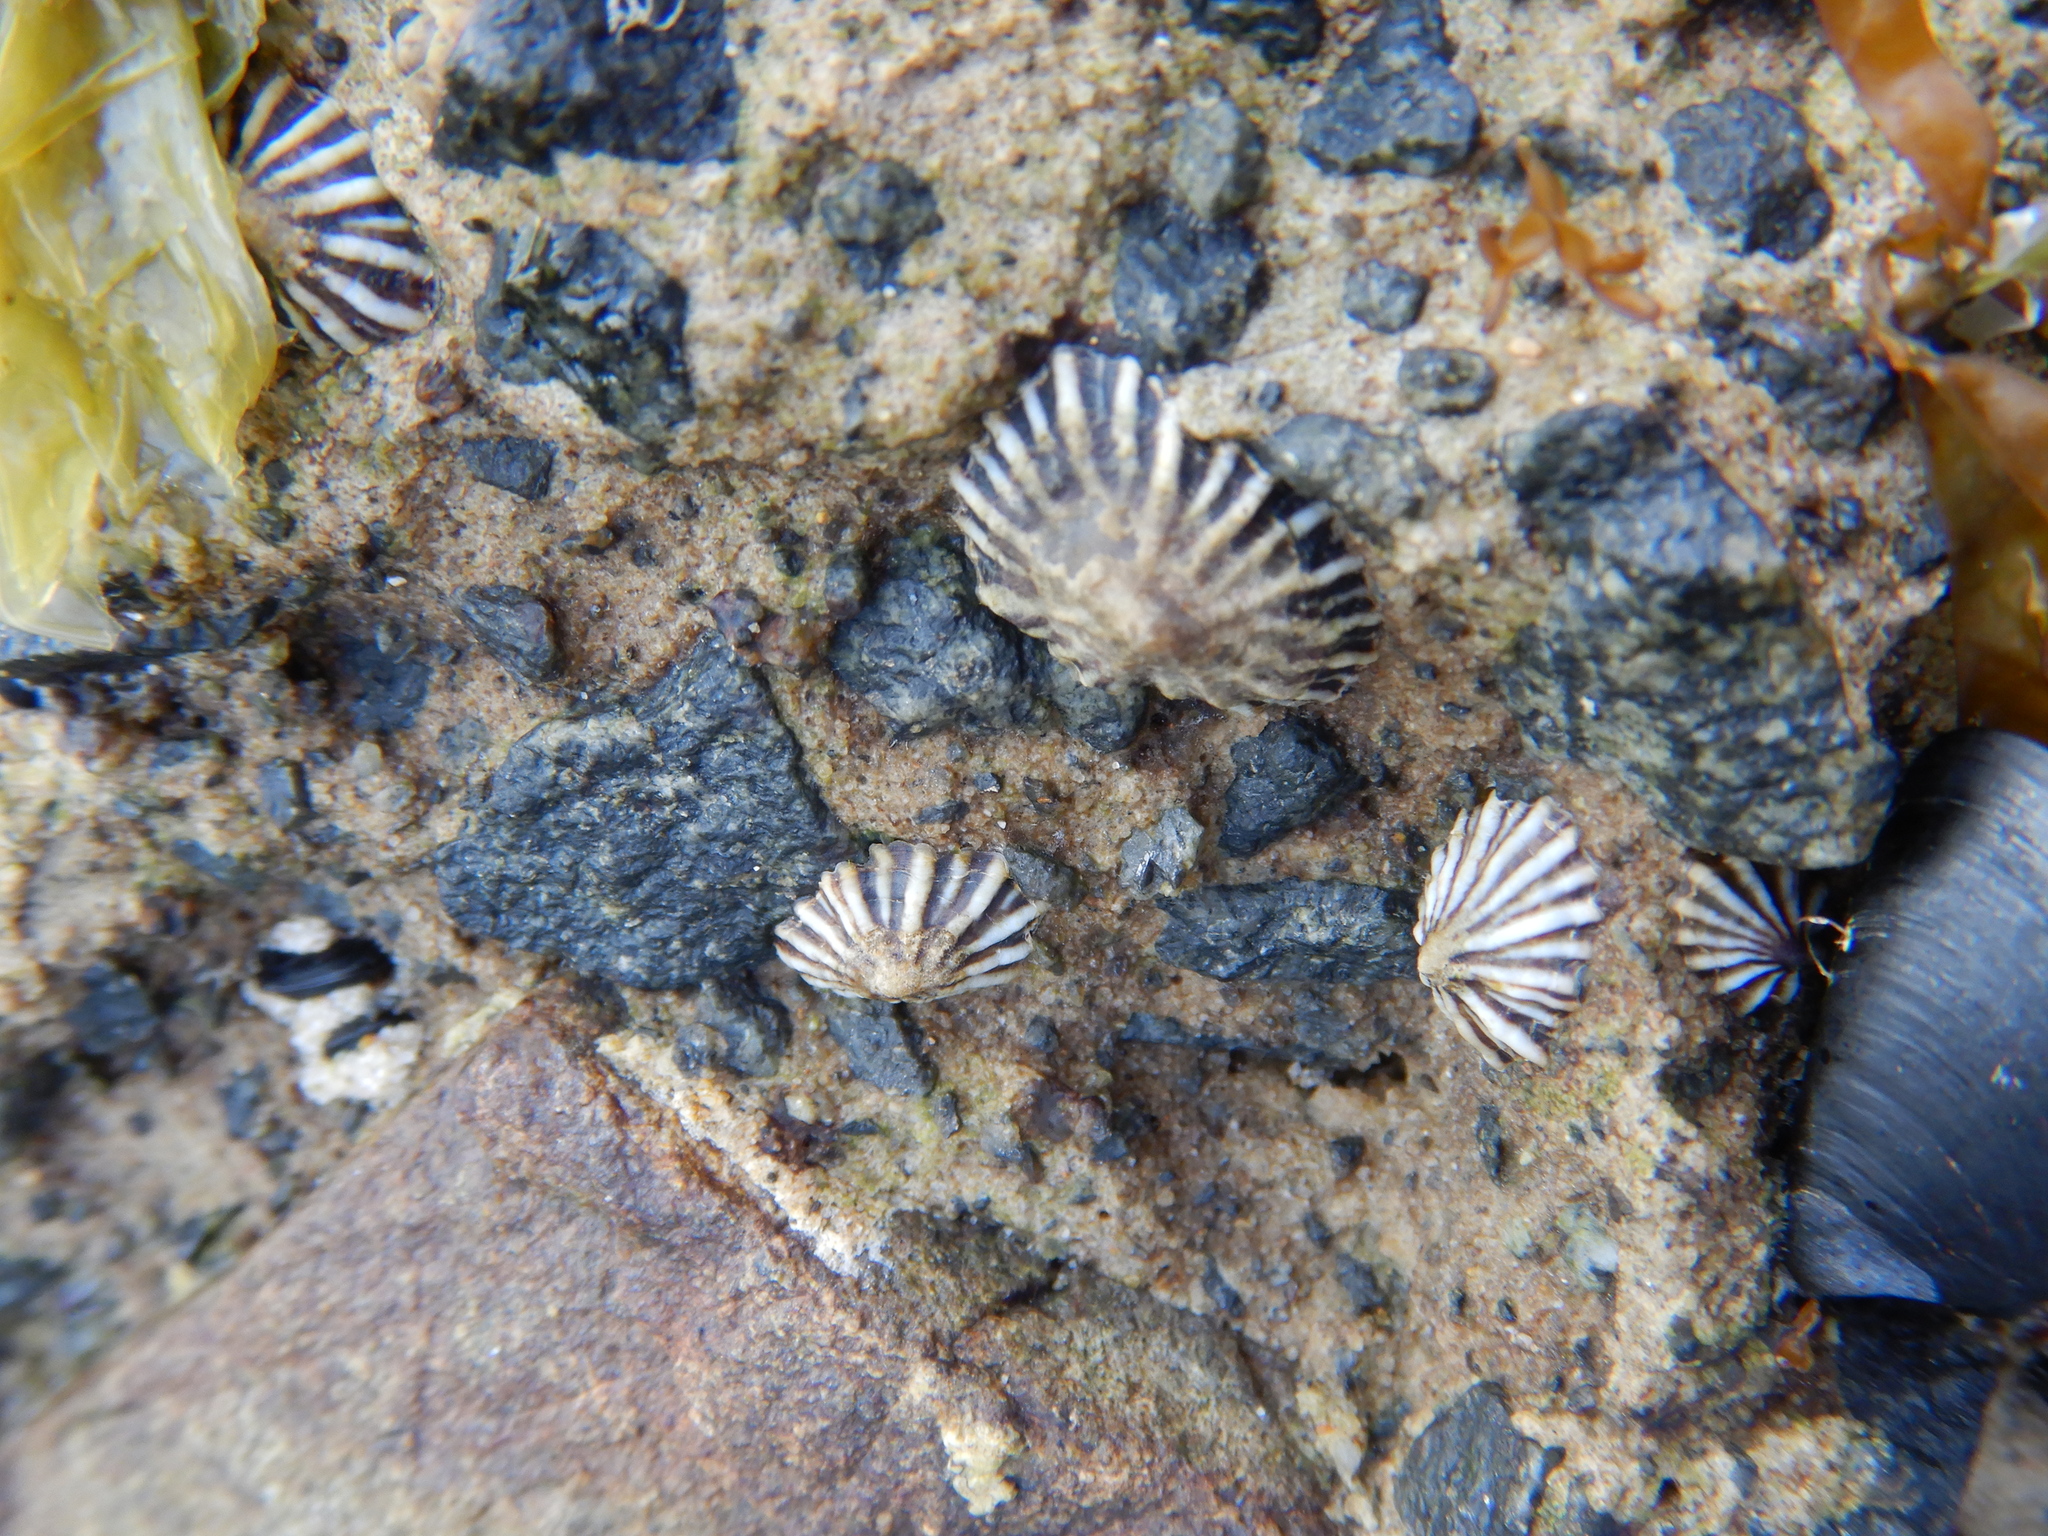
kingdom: Animalia
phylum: Mollusca
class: Gastropoda
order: Siphonariida
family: Siphonariidae
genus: Siphonaria
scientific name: Siphonaria diemenensis
